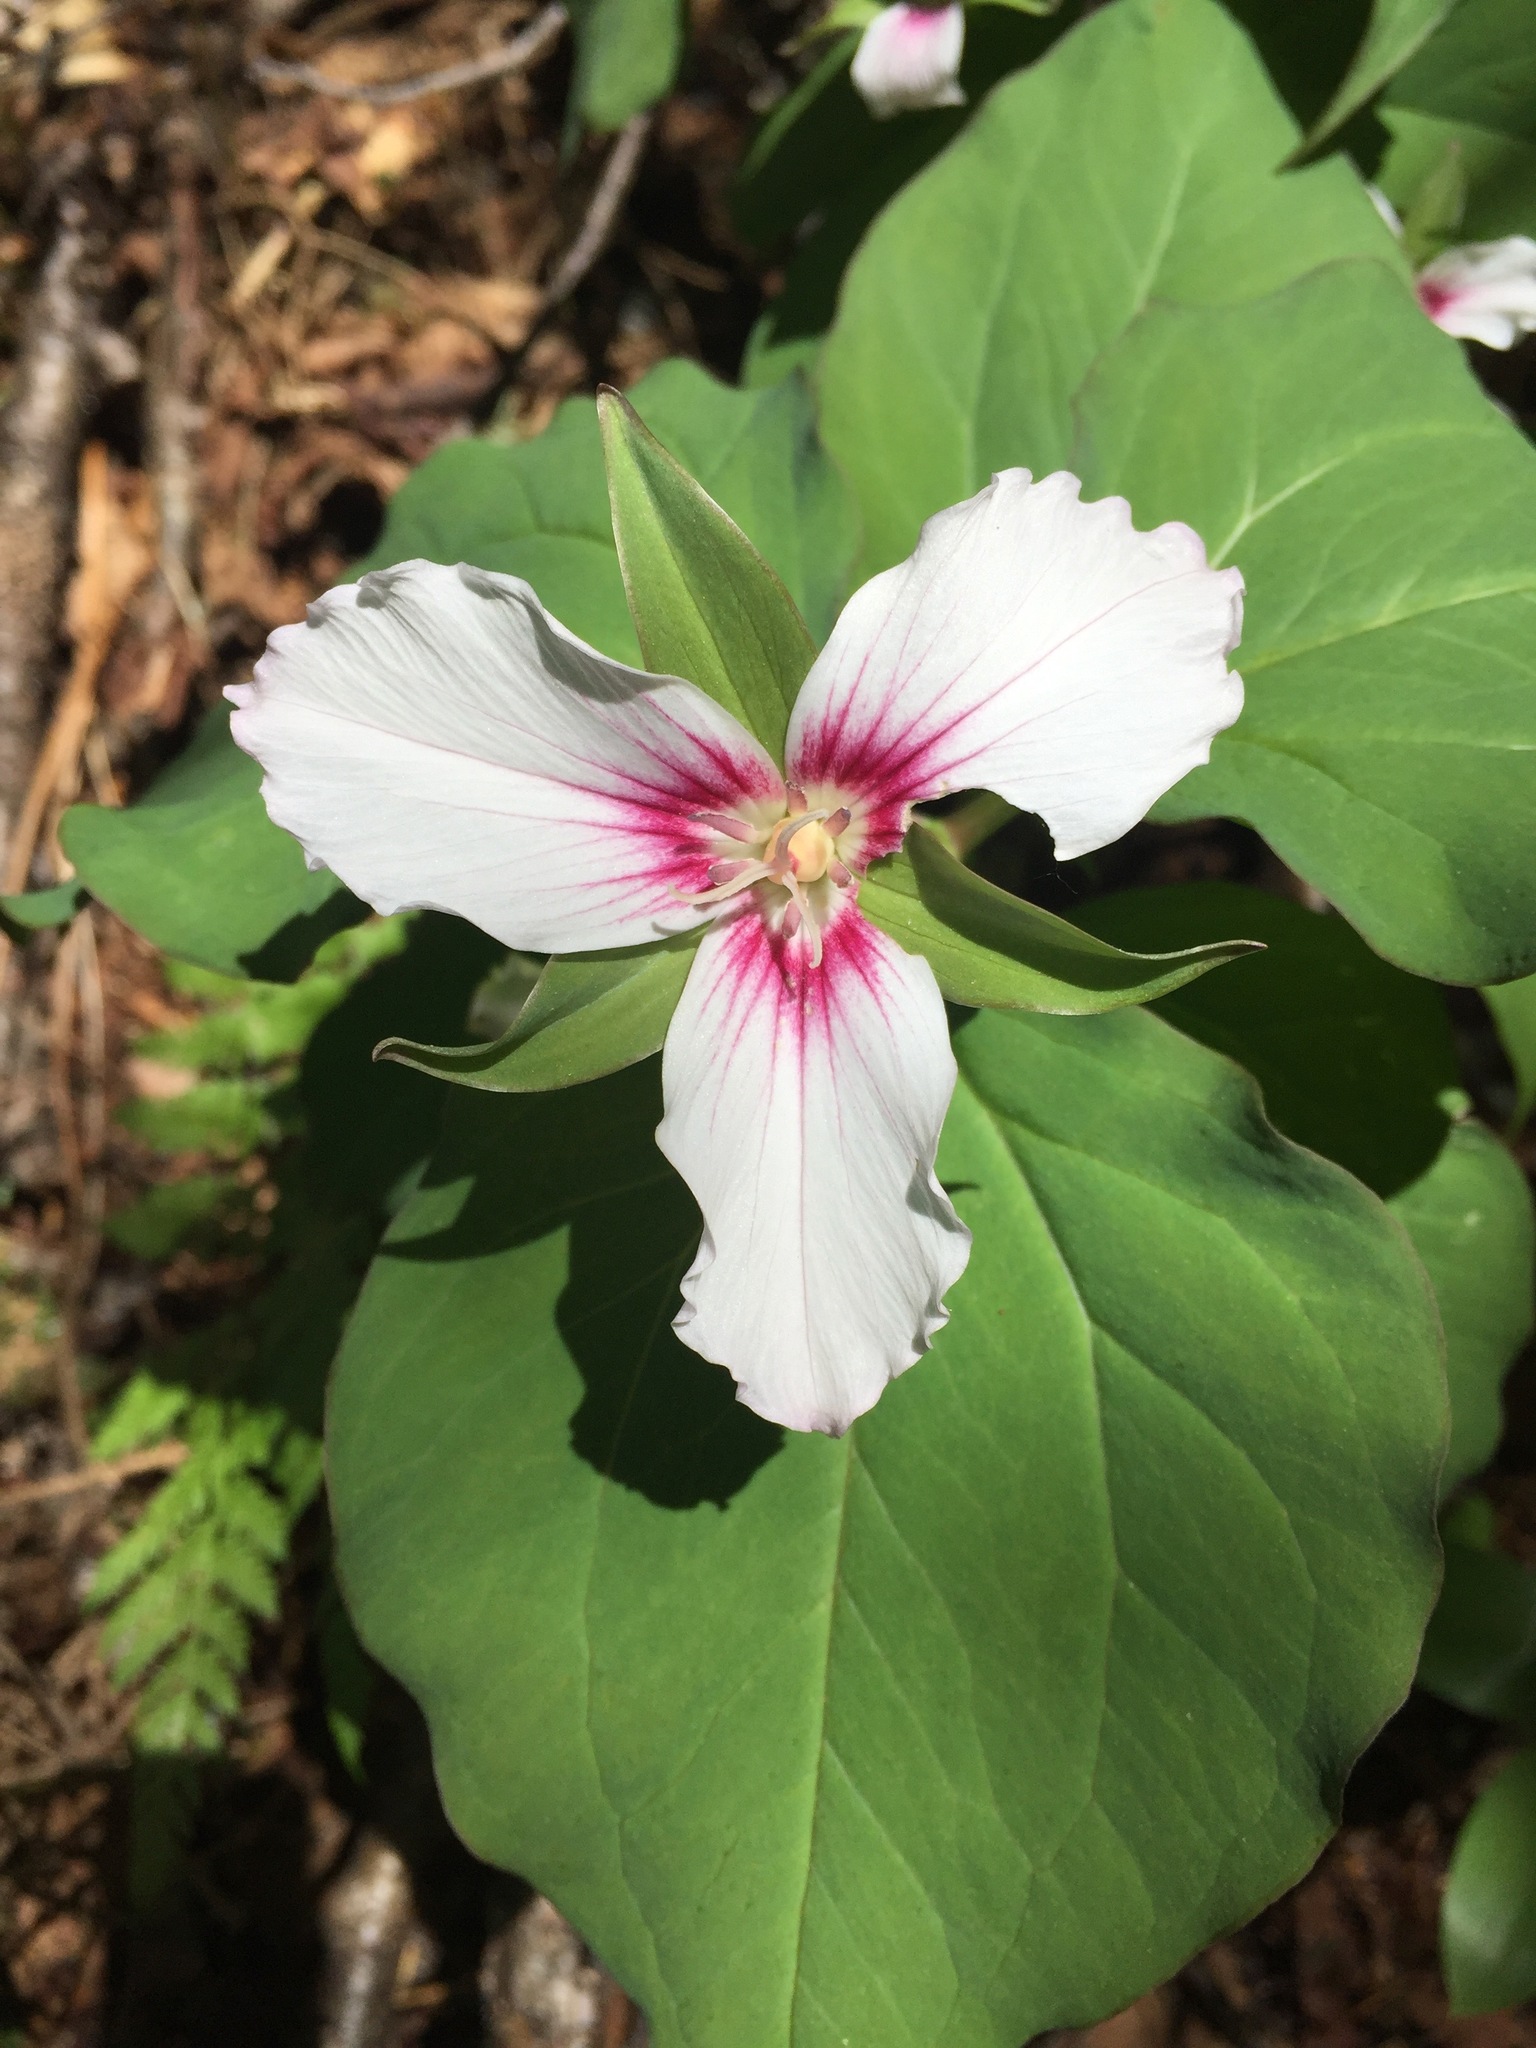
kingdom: Plantae
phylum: Tracheophyta
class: Liliopsida
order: Liliales
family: Melanthiaceae
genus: Trillium
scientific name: Trillium undulatum
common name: Paint trillium
